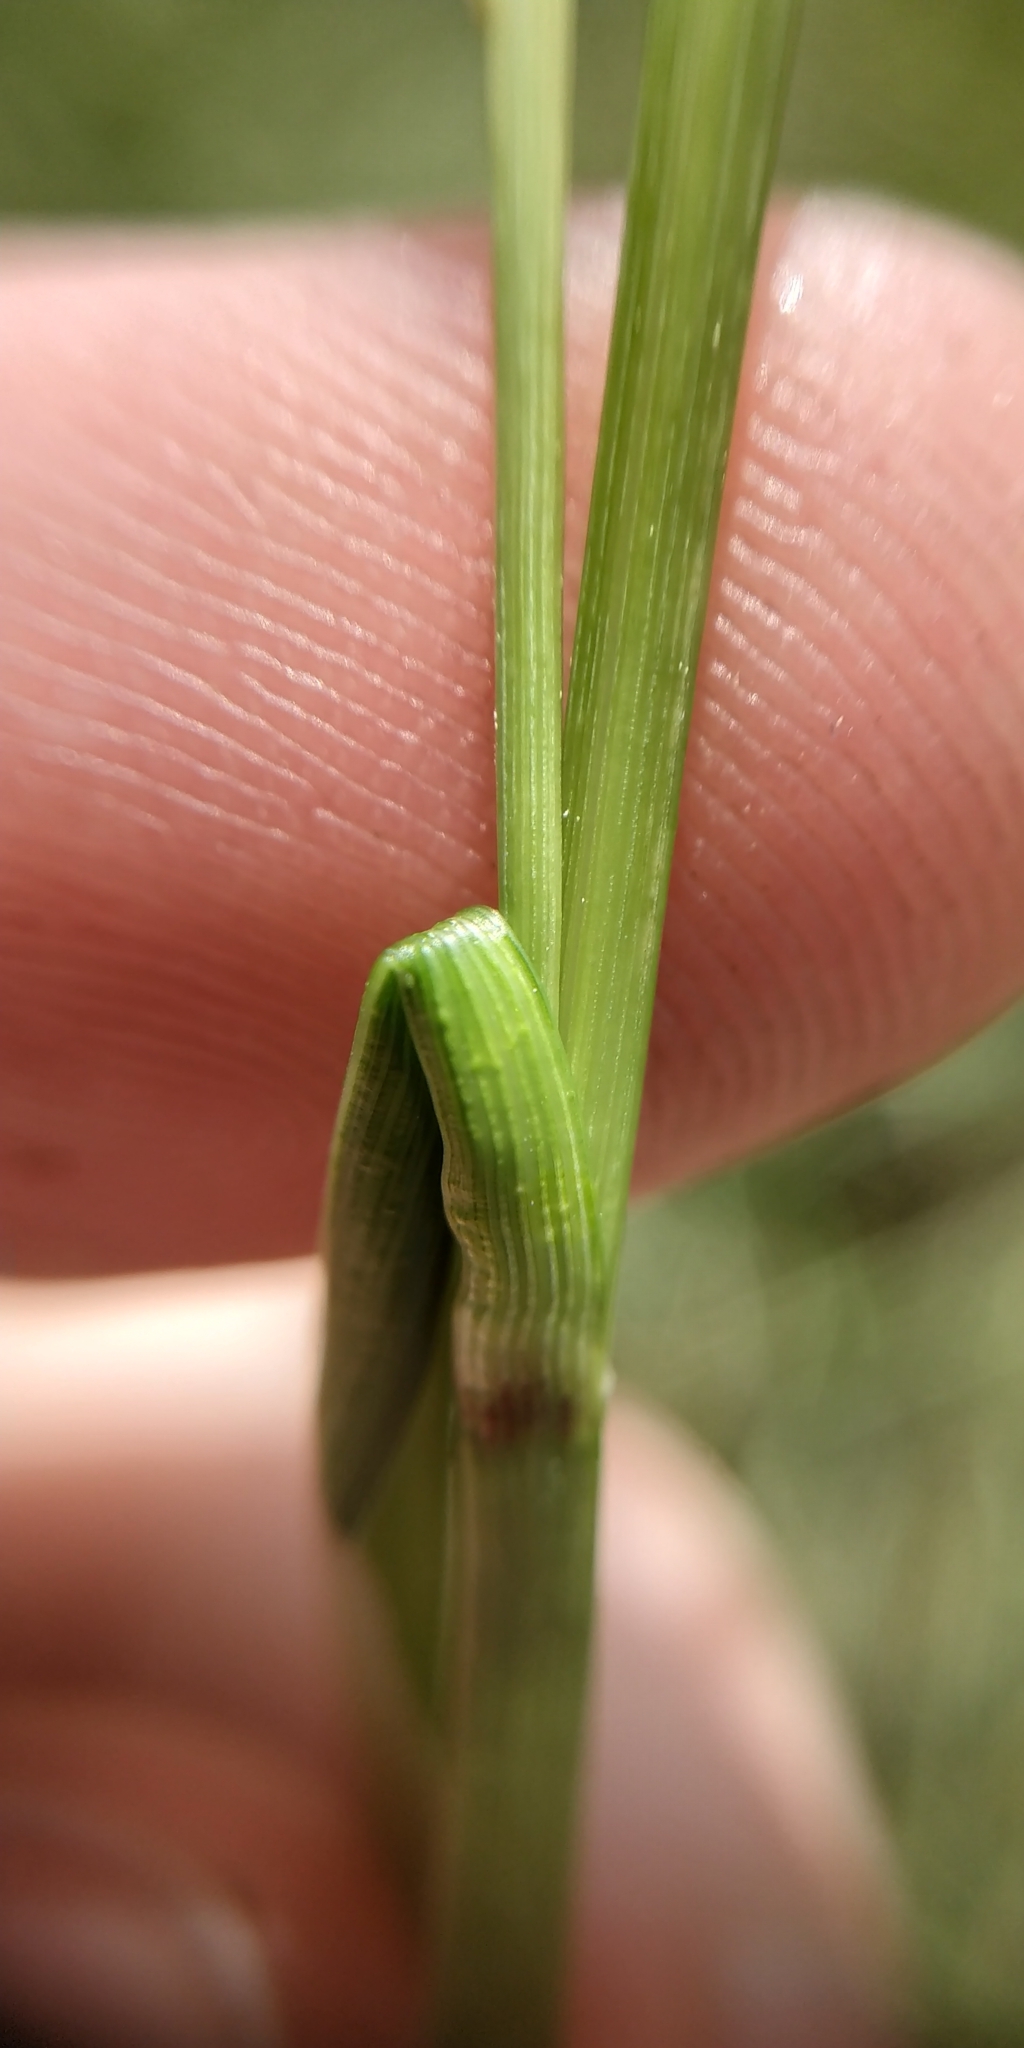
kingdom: Plantae
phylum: Tracheophyta
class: Liliopsida
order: Poales
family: Cyperaceae
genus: Carex
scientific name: Carex rostrata
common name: Bottle sedge
